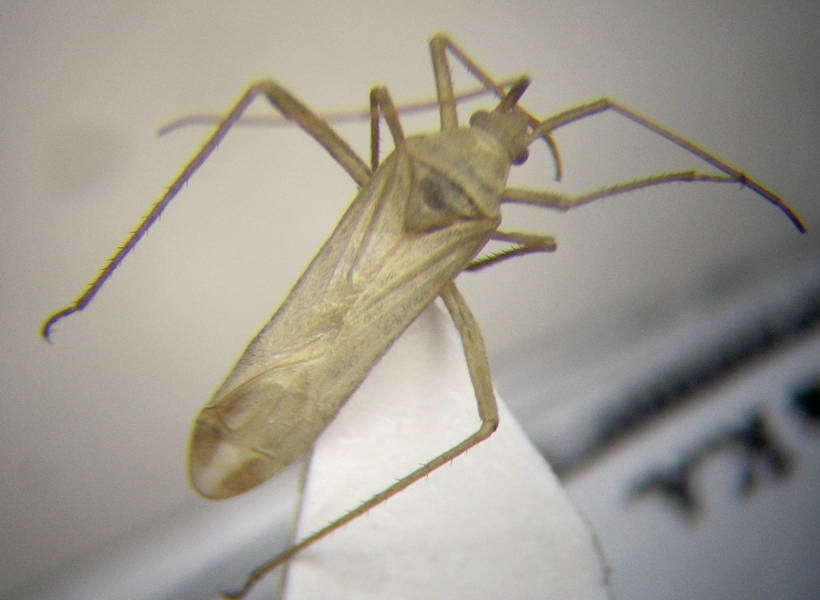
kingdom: Animalia
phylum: Arthropoda
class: Insecta
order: Hemiptera
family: Miridae
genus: Apantilius
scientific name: Apantilius prasinus
